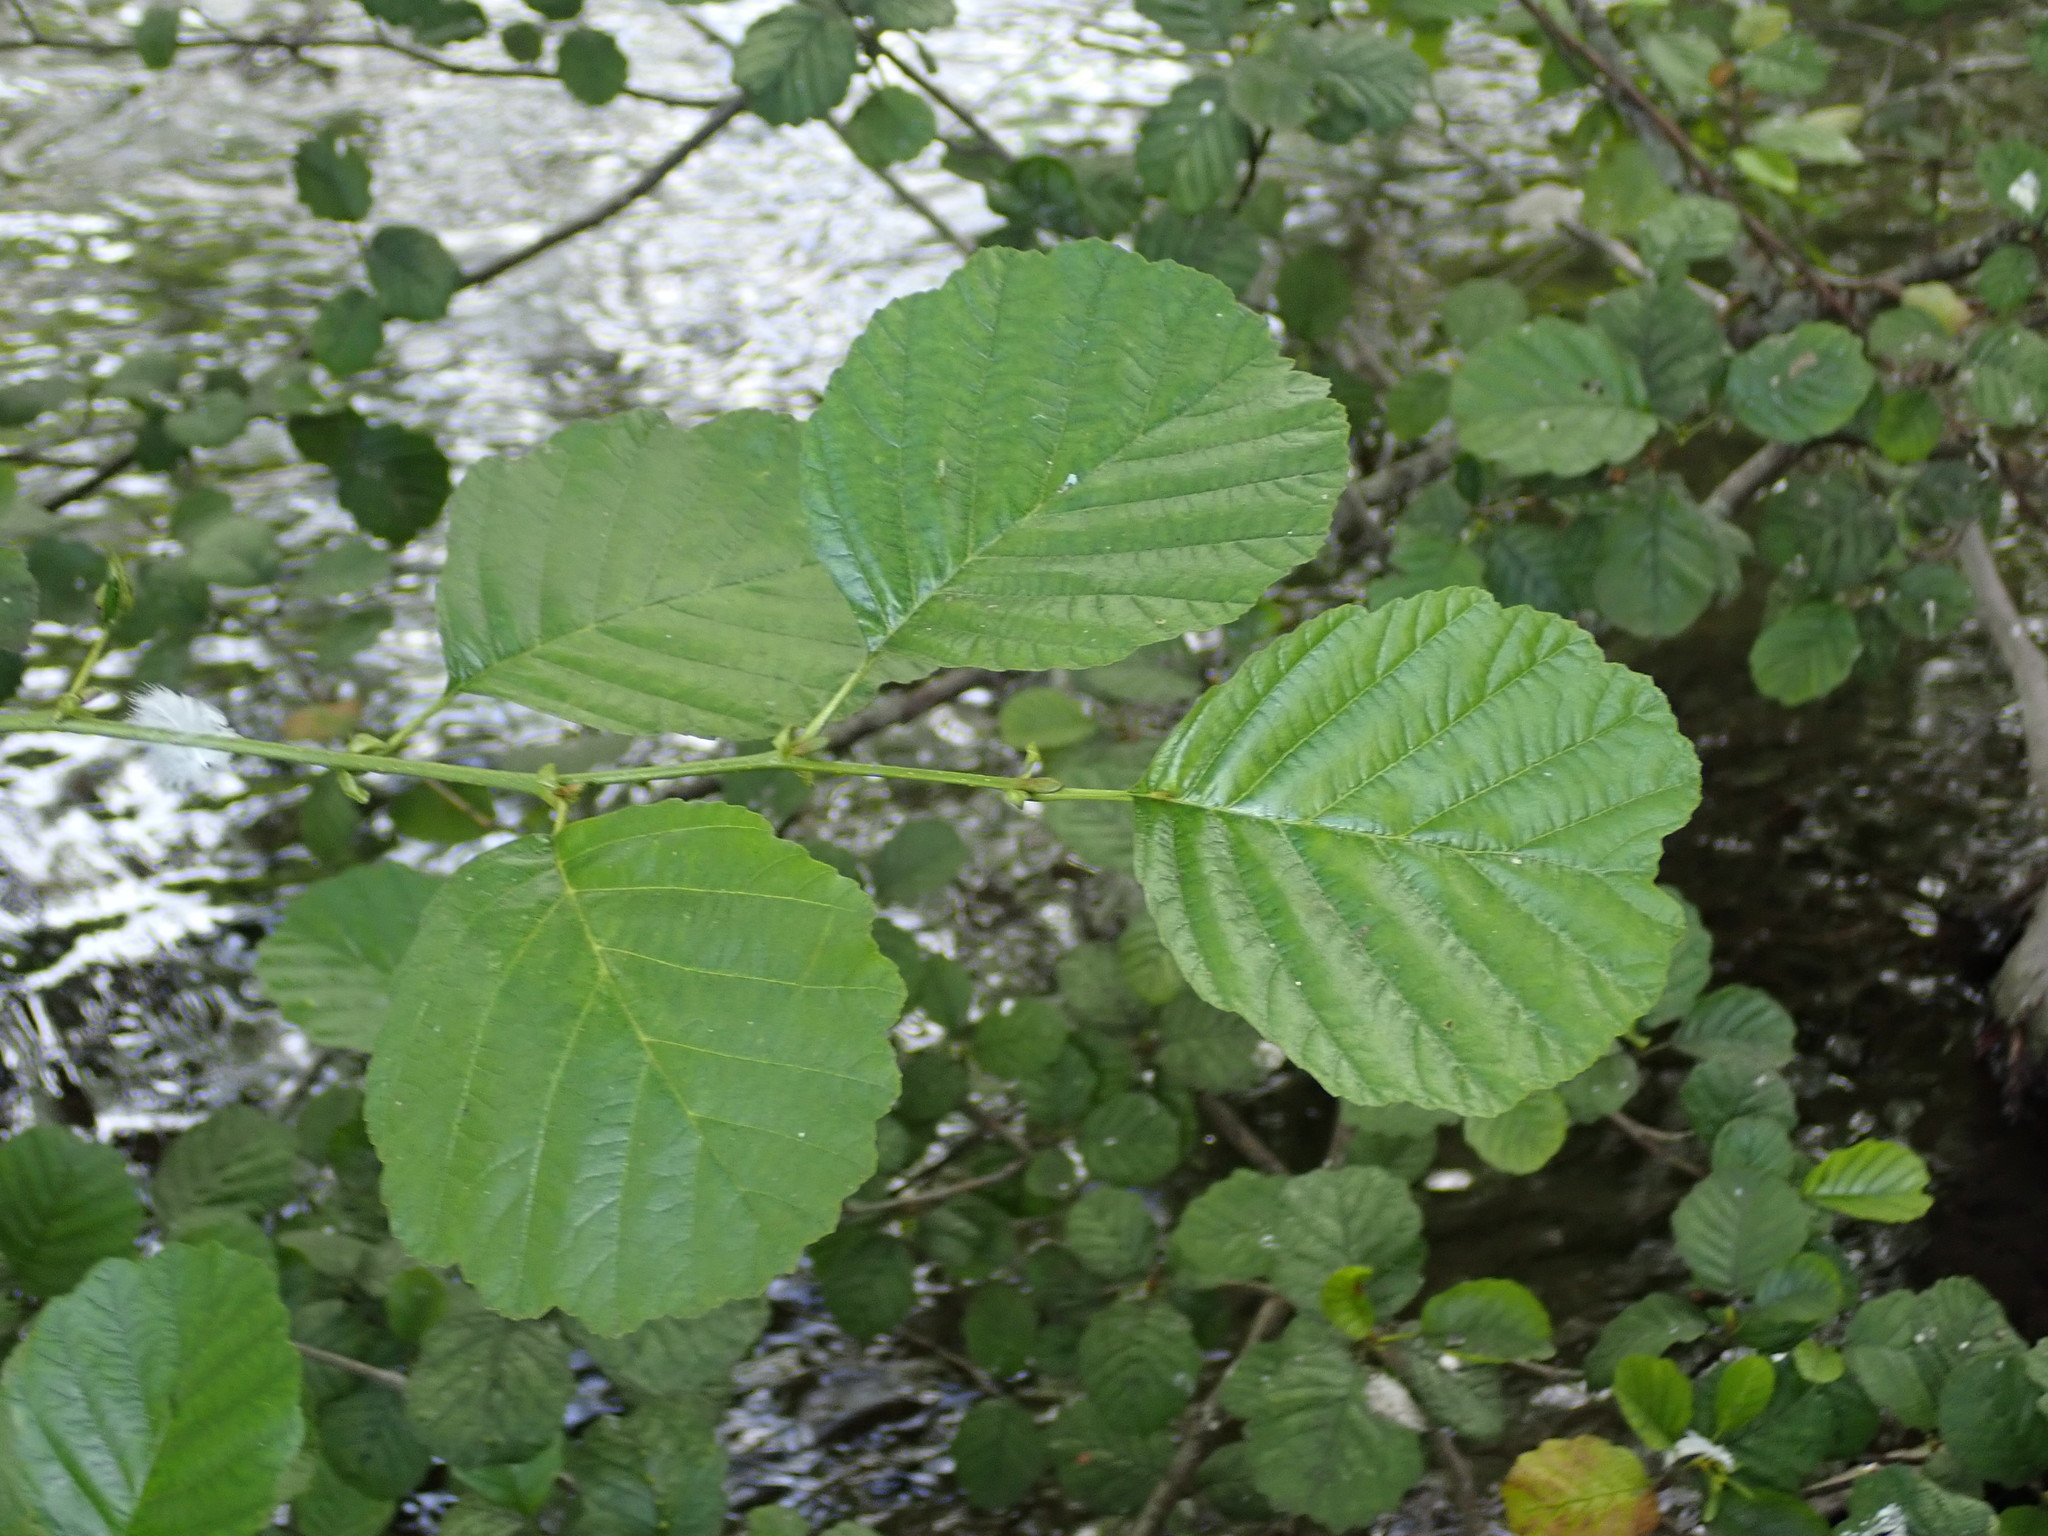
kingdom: Plantae
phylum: Tracheophyta
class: Magnoliopsida
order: Fagales
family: Betulaceae
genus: Alnus
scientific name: Alnus glutinosa
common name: Black alder
